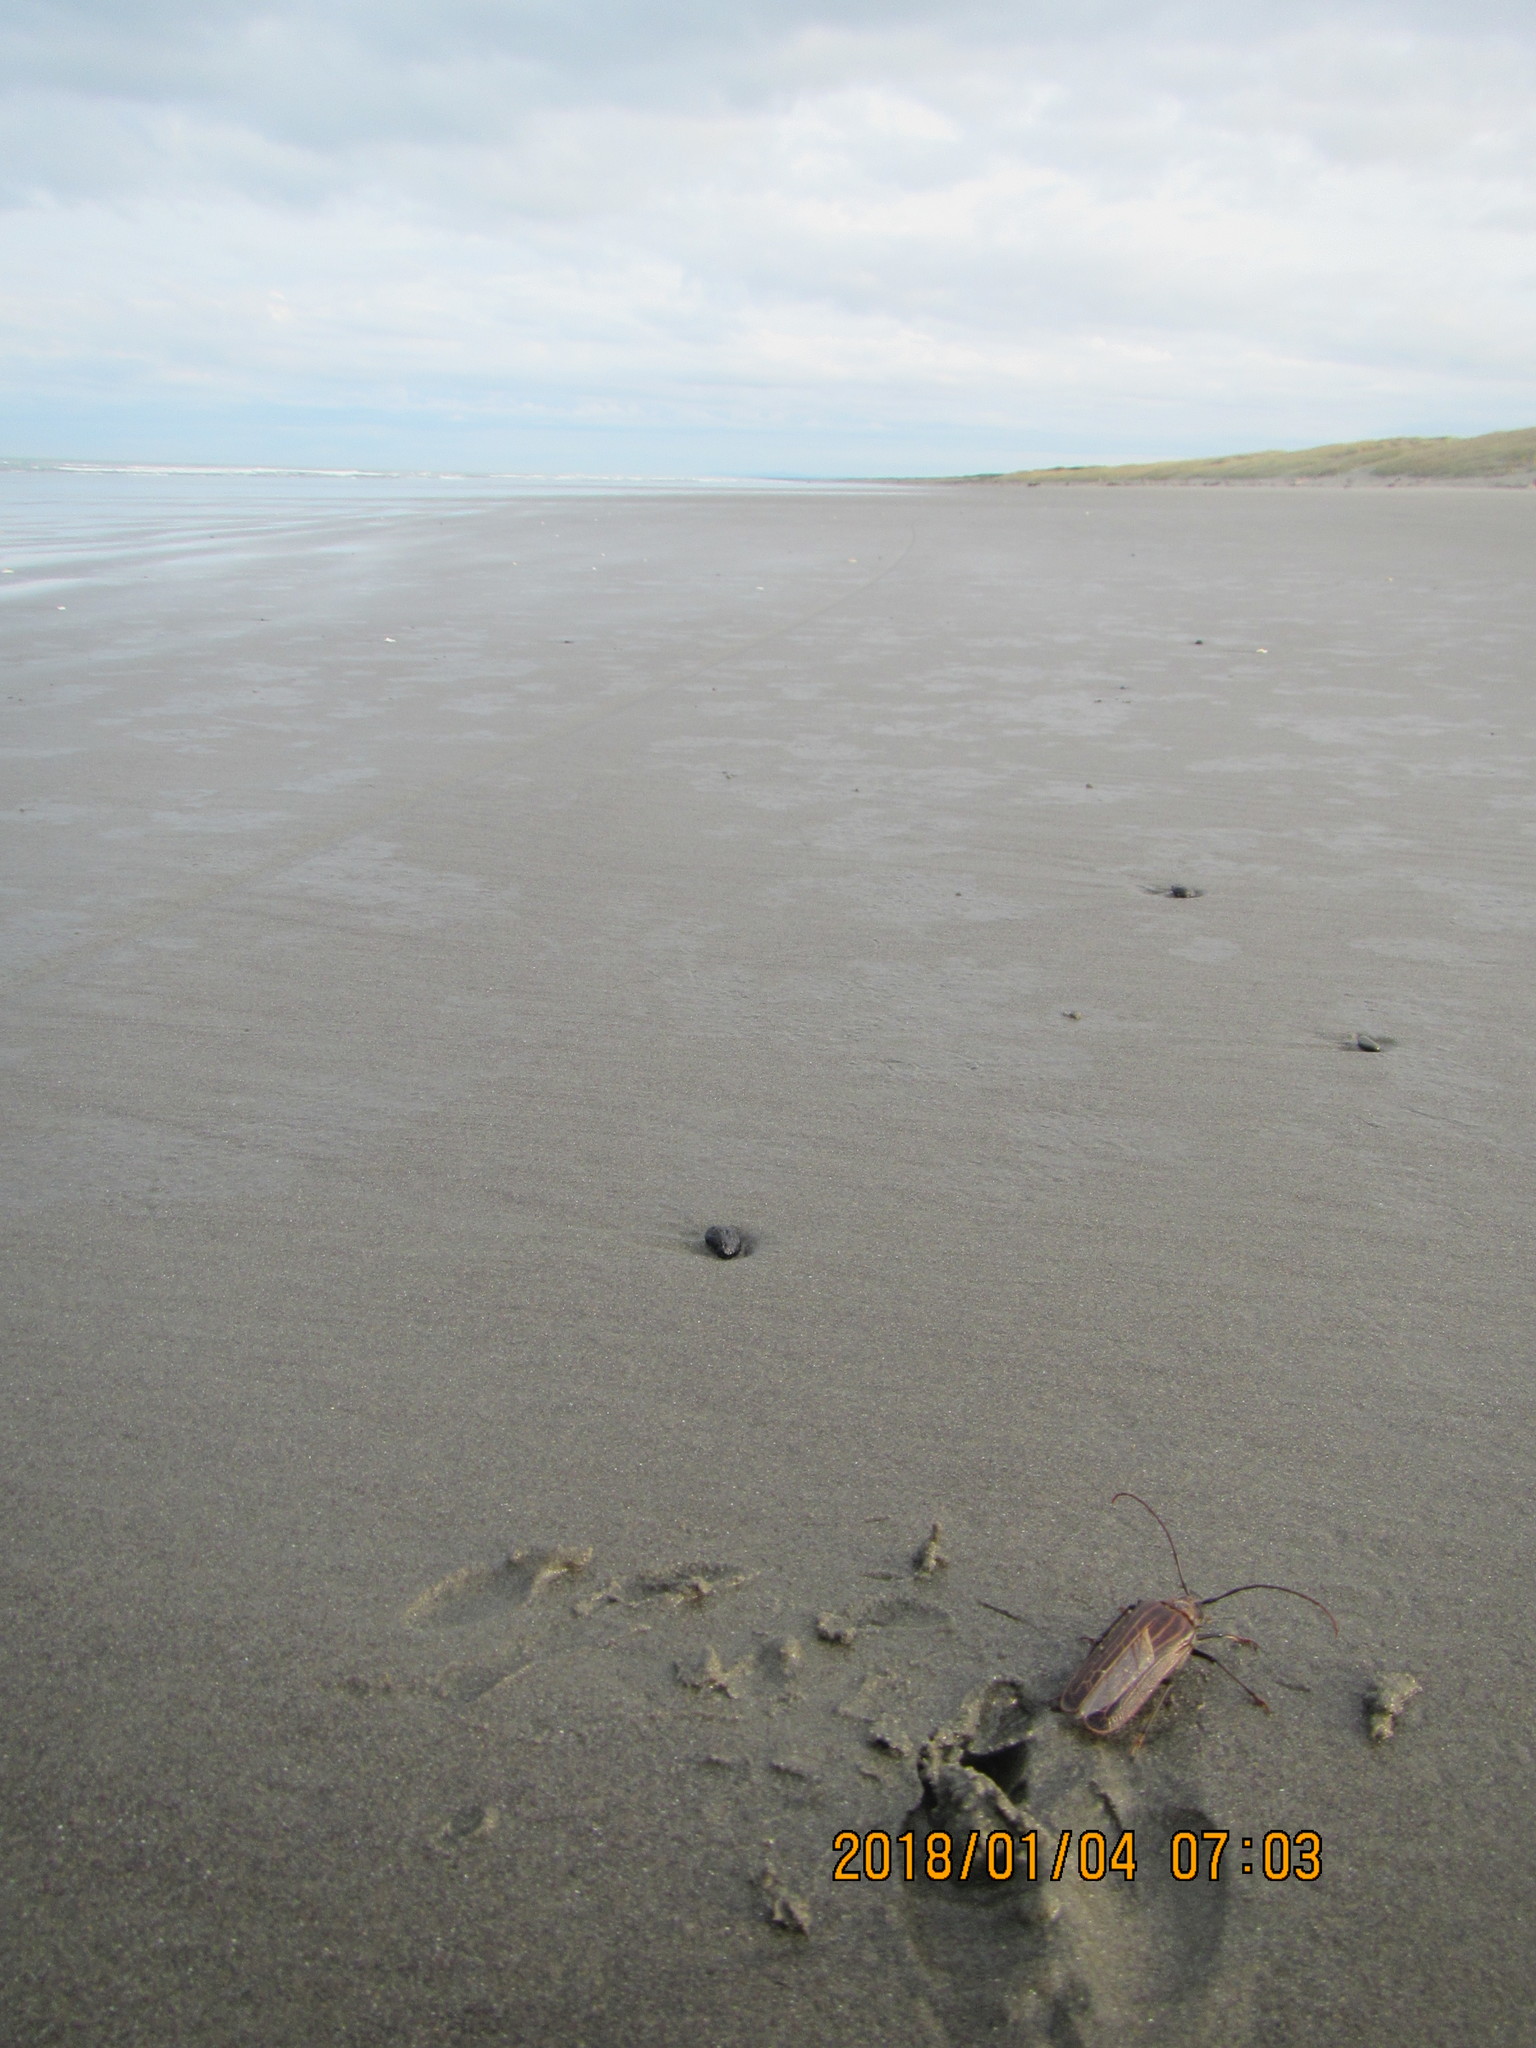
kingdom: Animalia
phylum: Arthropoda
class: Insecta
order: Coleoptera
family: Cerambycidae
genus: Prionoplus
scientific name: Prionoplus reticularis
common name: Huhu beetle
